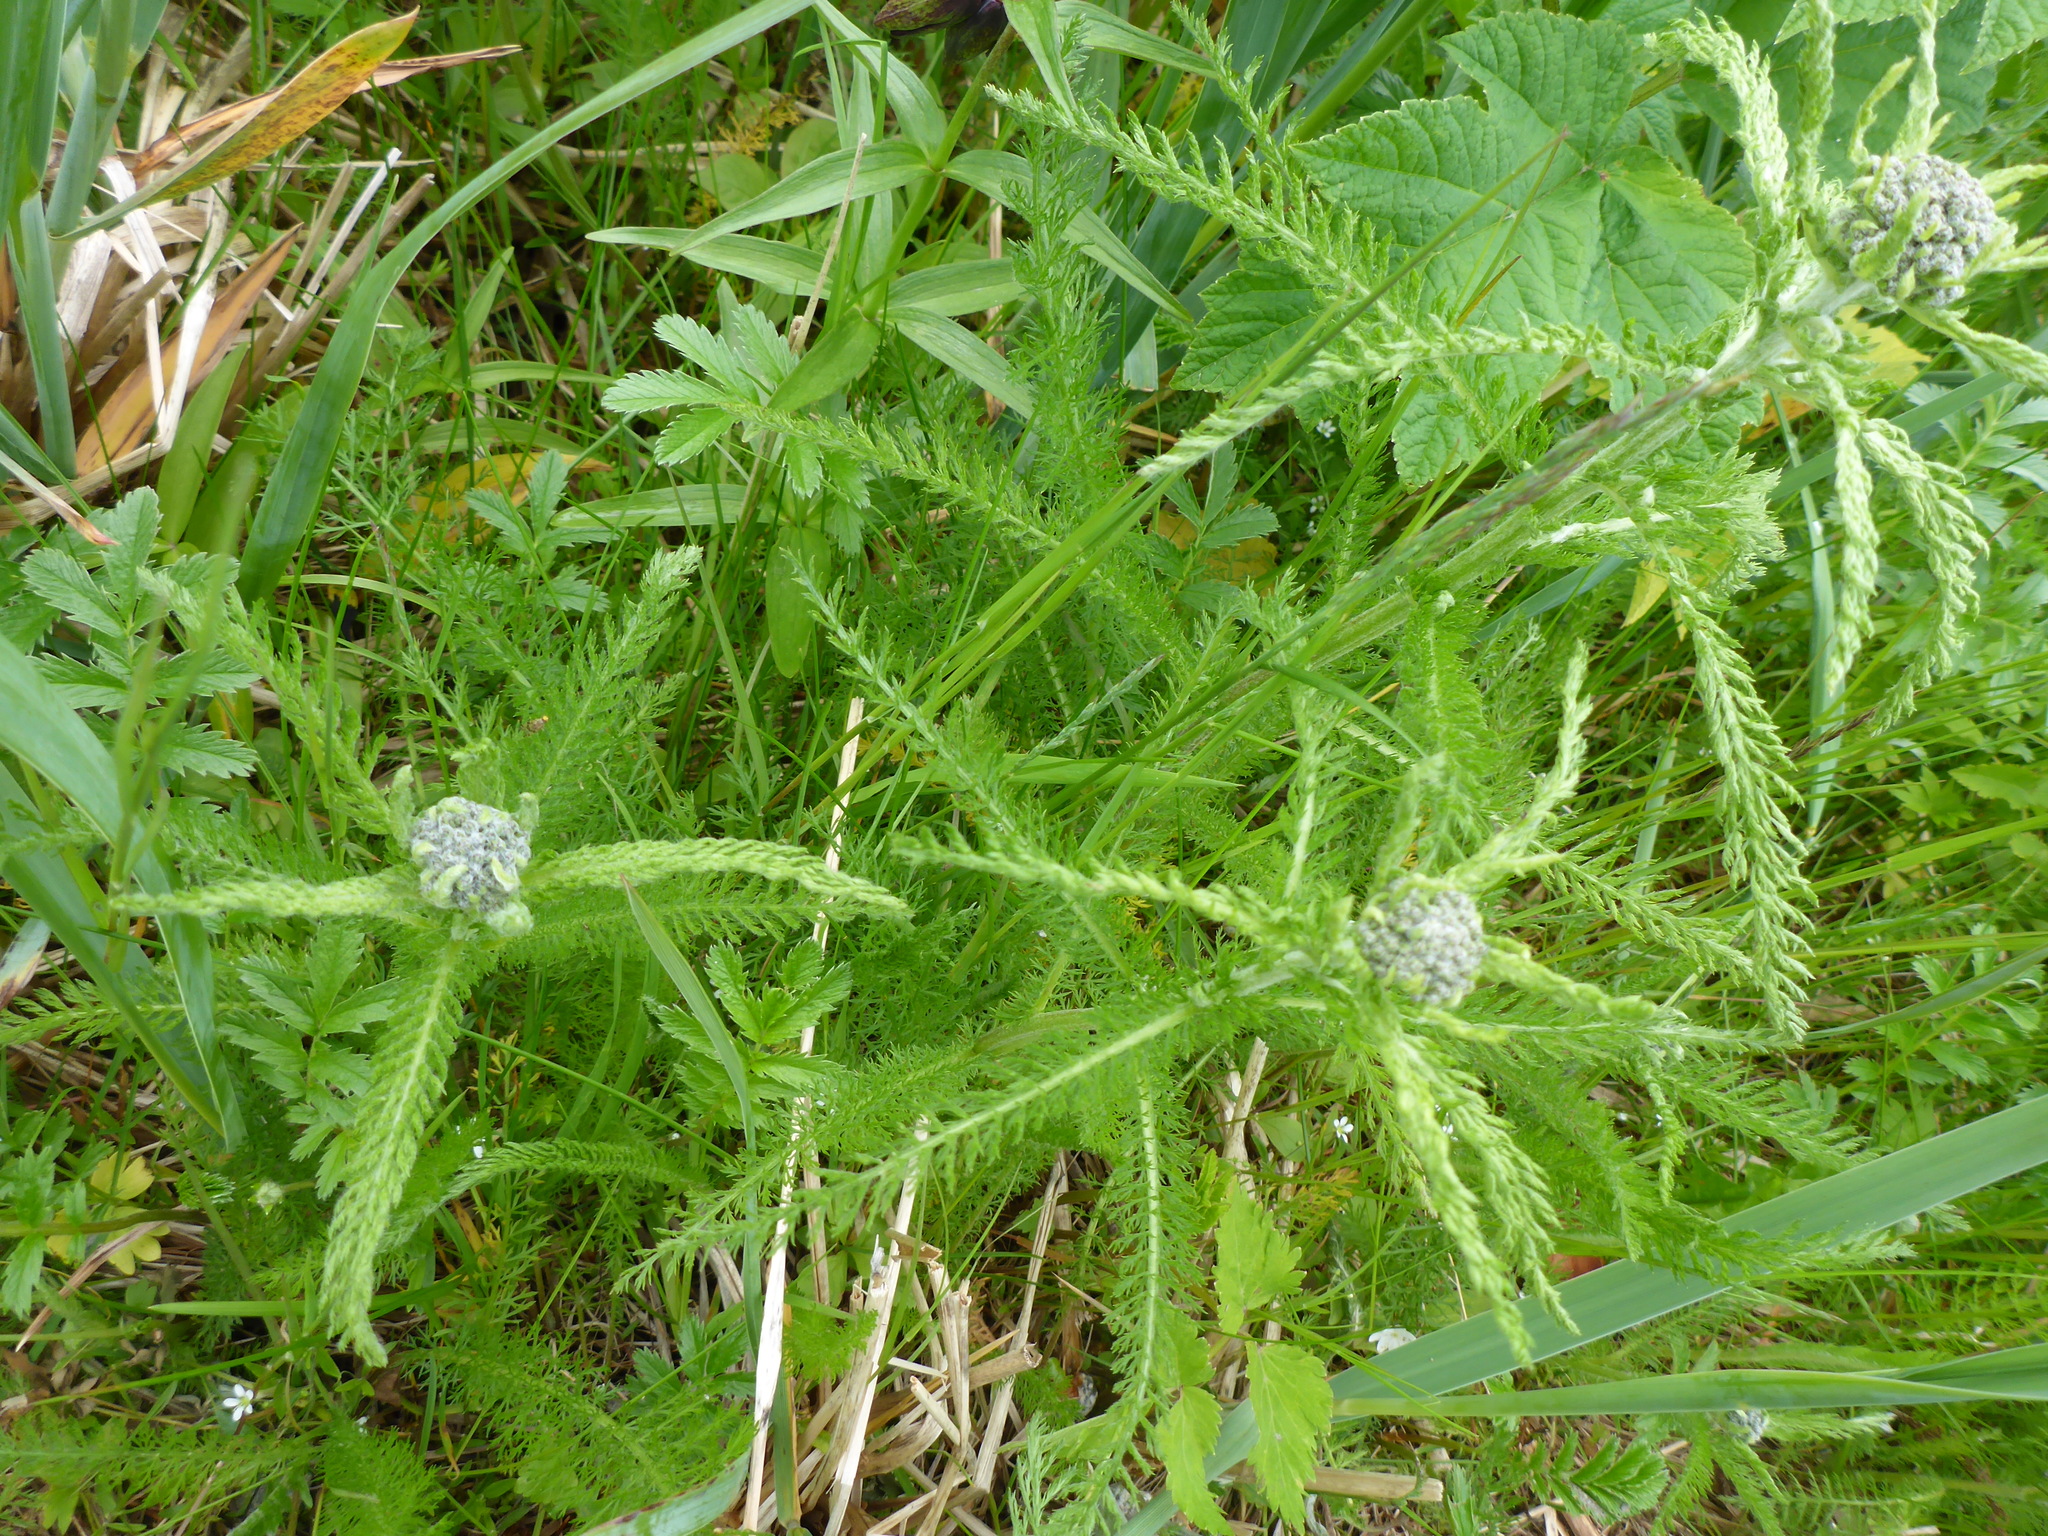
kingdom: Plantae
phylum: Tracheophyta
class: Magnoliopsida
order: Asterales
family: Asteraceae
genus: Achillea
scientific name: Achillea millefolium
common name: Yarrow
